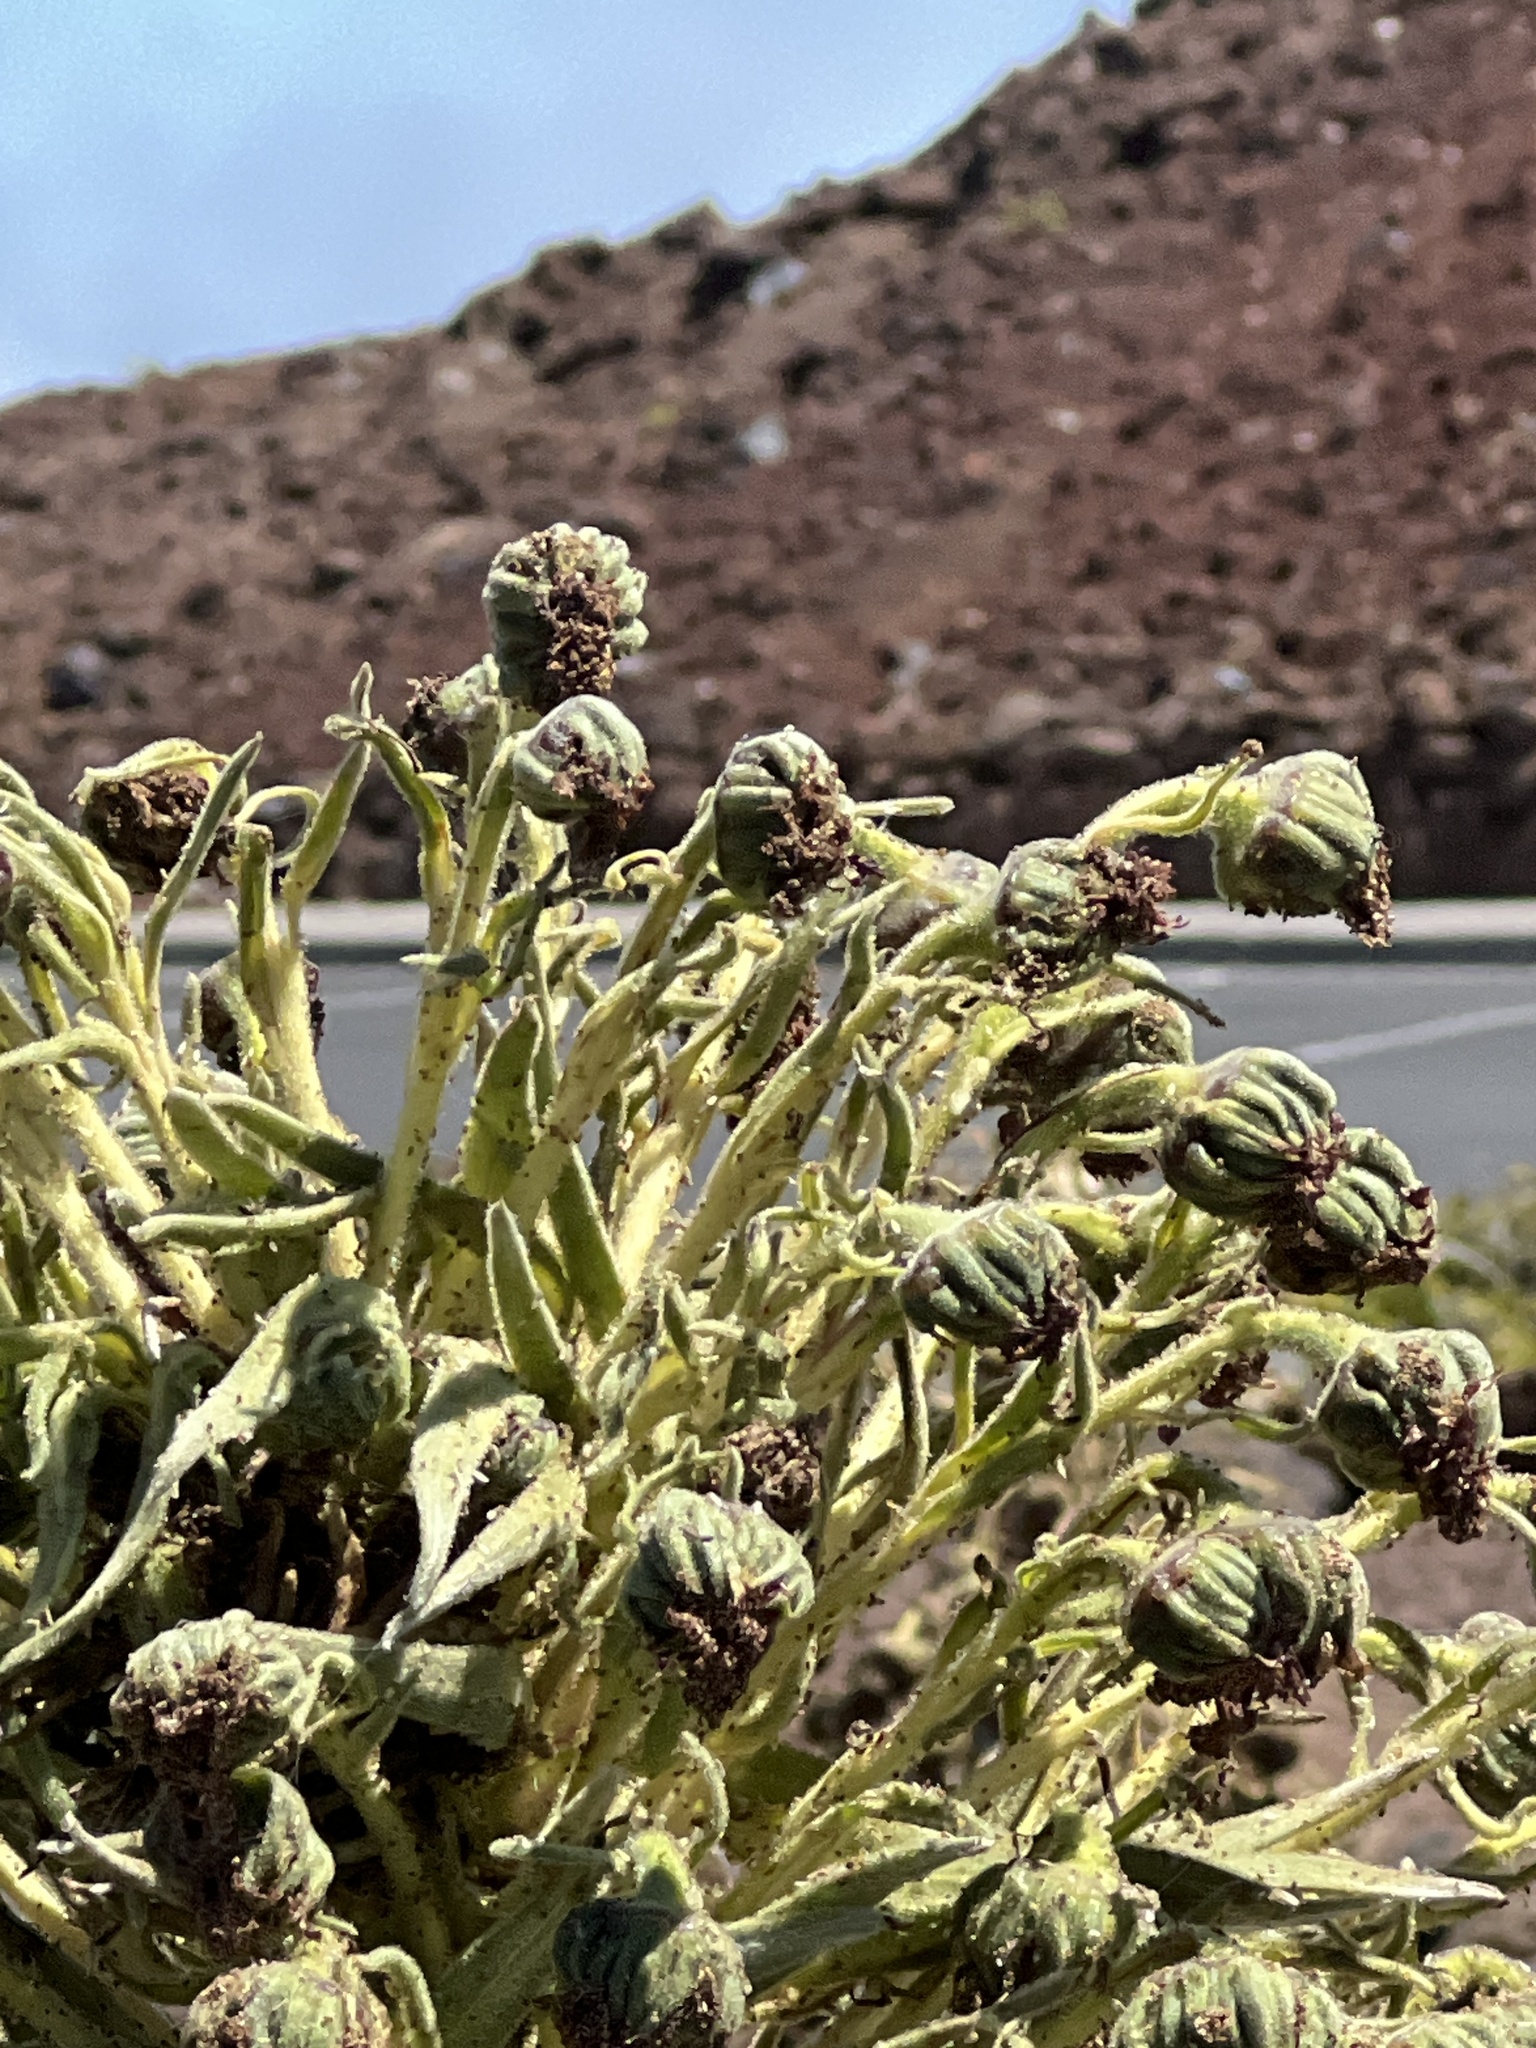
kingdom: Plantae
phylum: Tracheophyta
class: Magnoliopsida
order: Asterales
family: Asteraceae
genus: Argyroxiphium
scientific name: Argyroxiphium sandwicense
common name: Silversword
